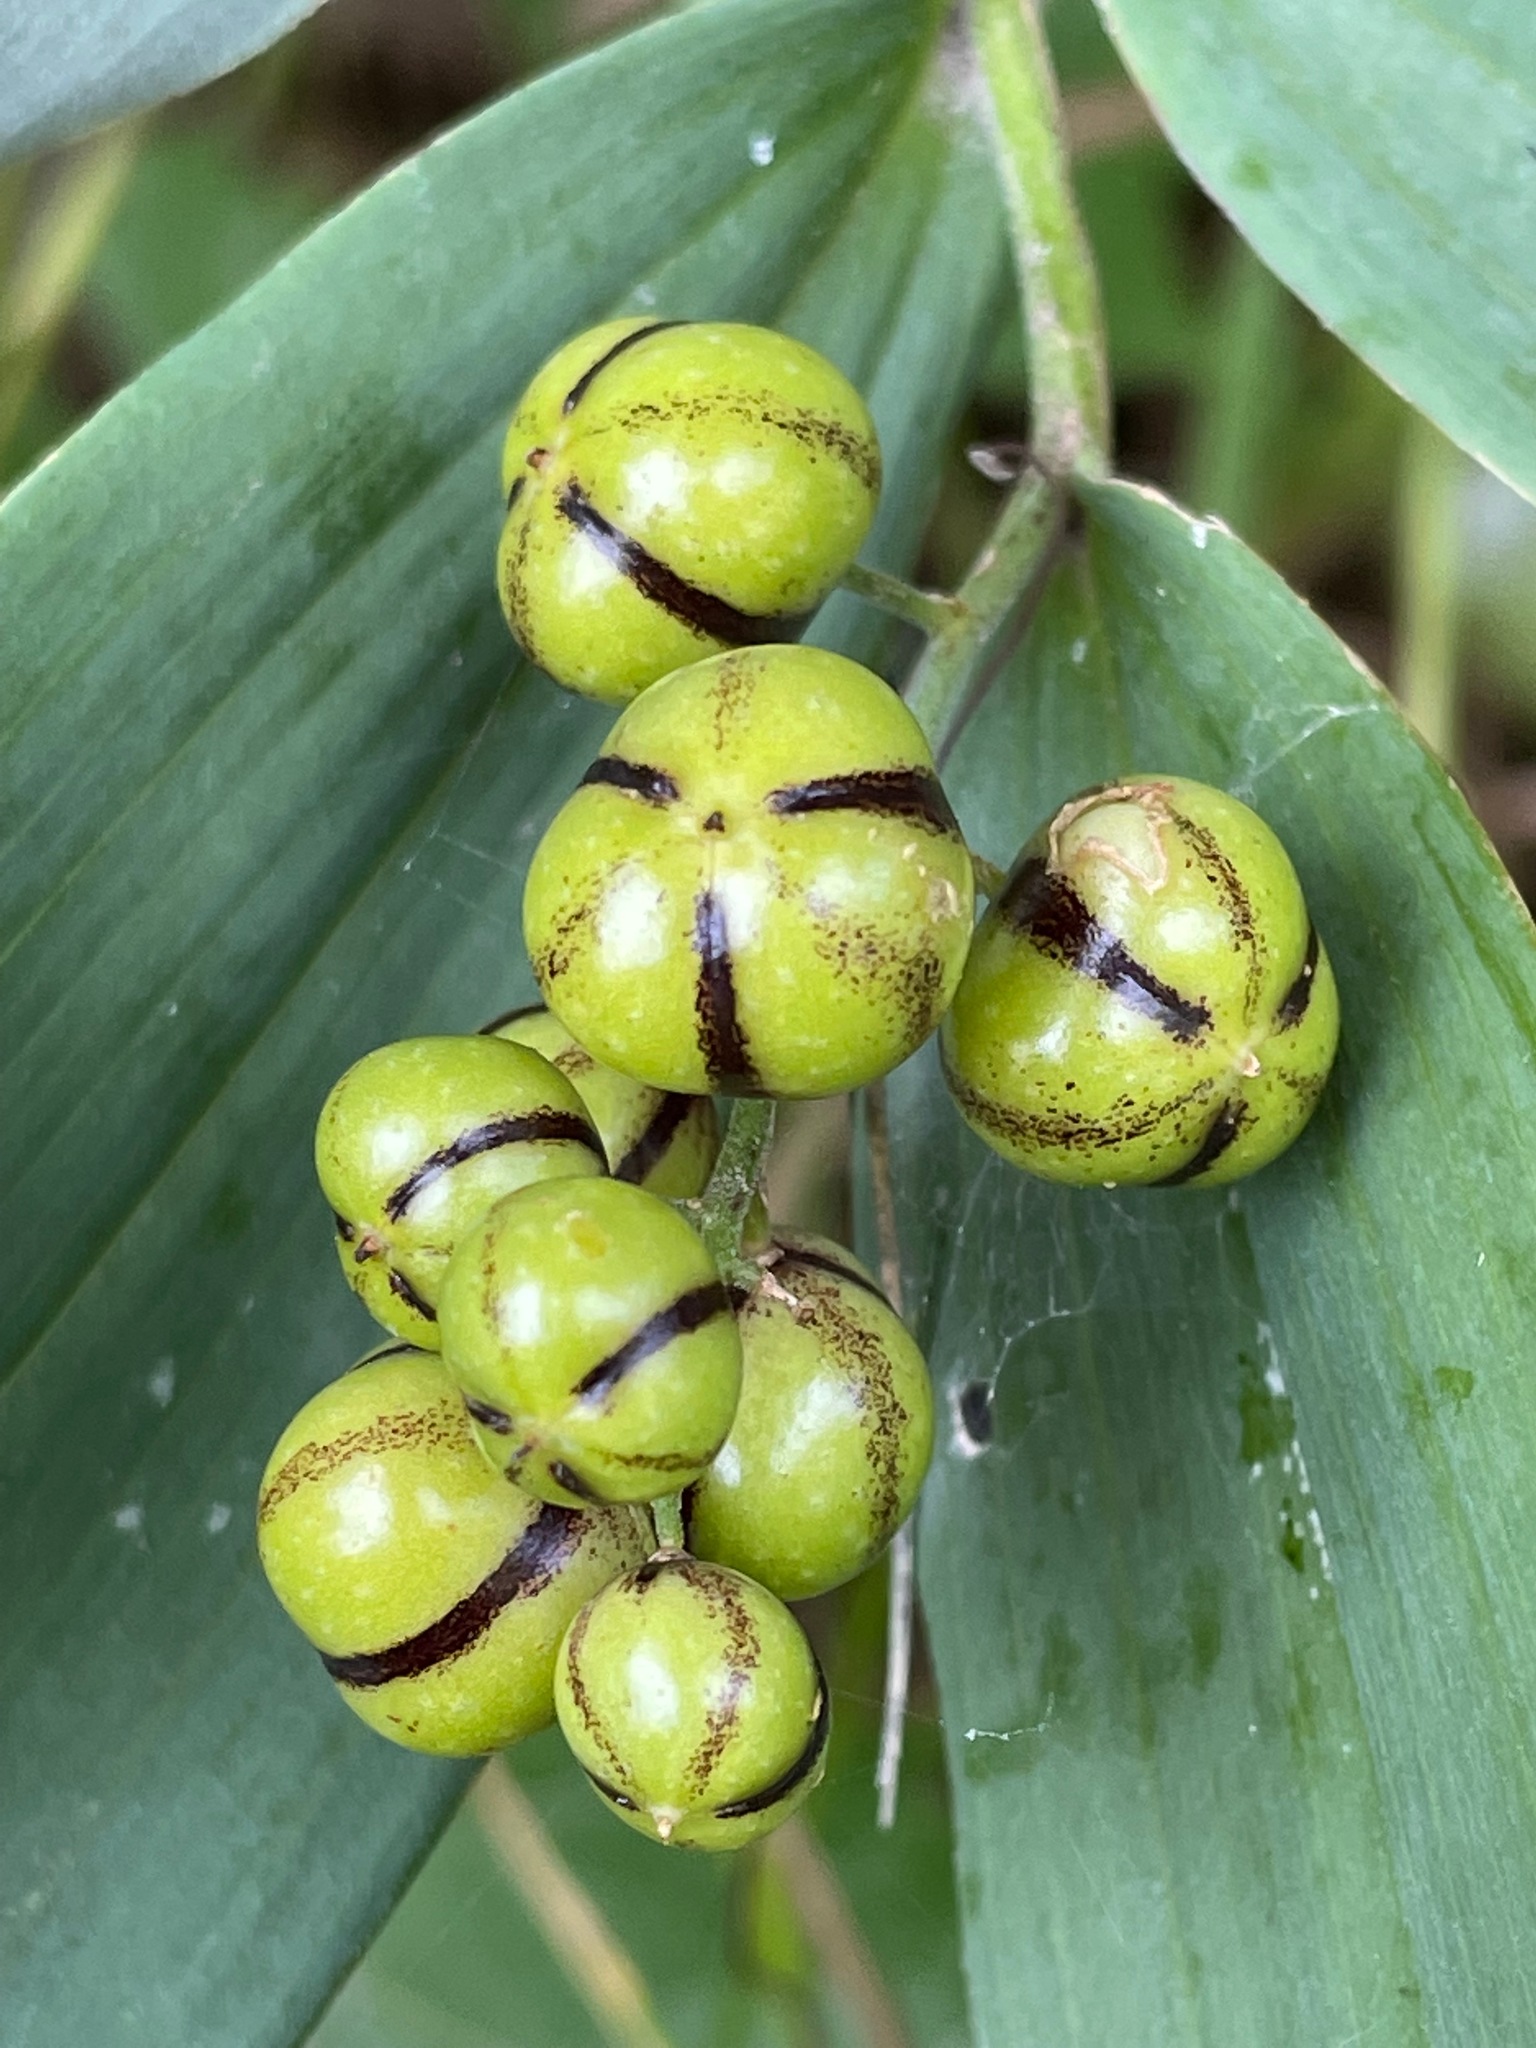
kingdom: Plantae
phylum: Tracheophyta
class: Liliopsida
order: Asparagales
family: Asparagaceae
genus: Maianthemum
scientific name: Maianthemum stellatum
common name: Little false solomon's seal
